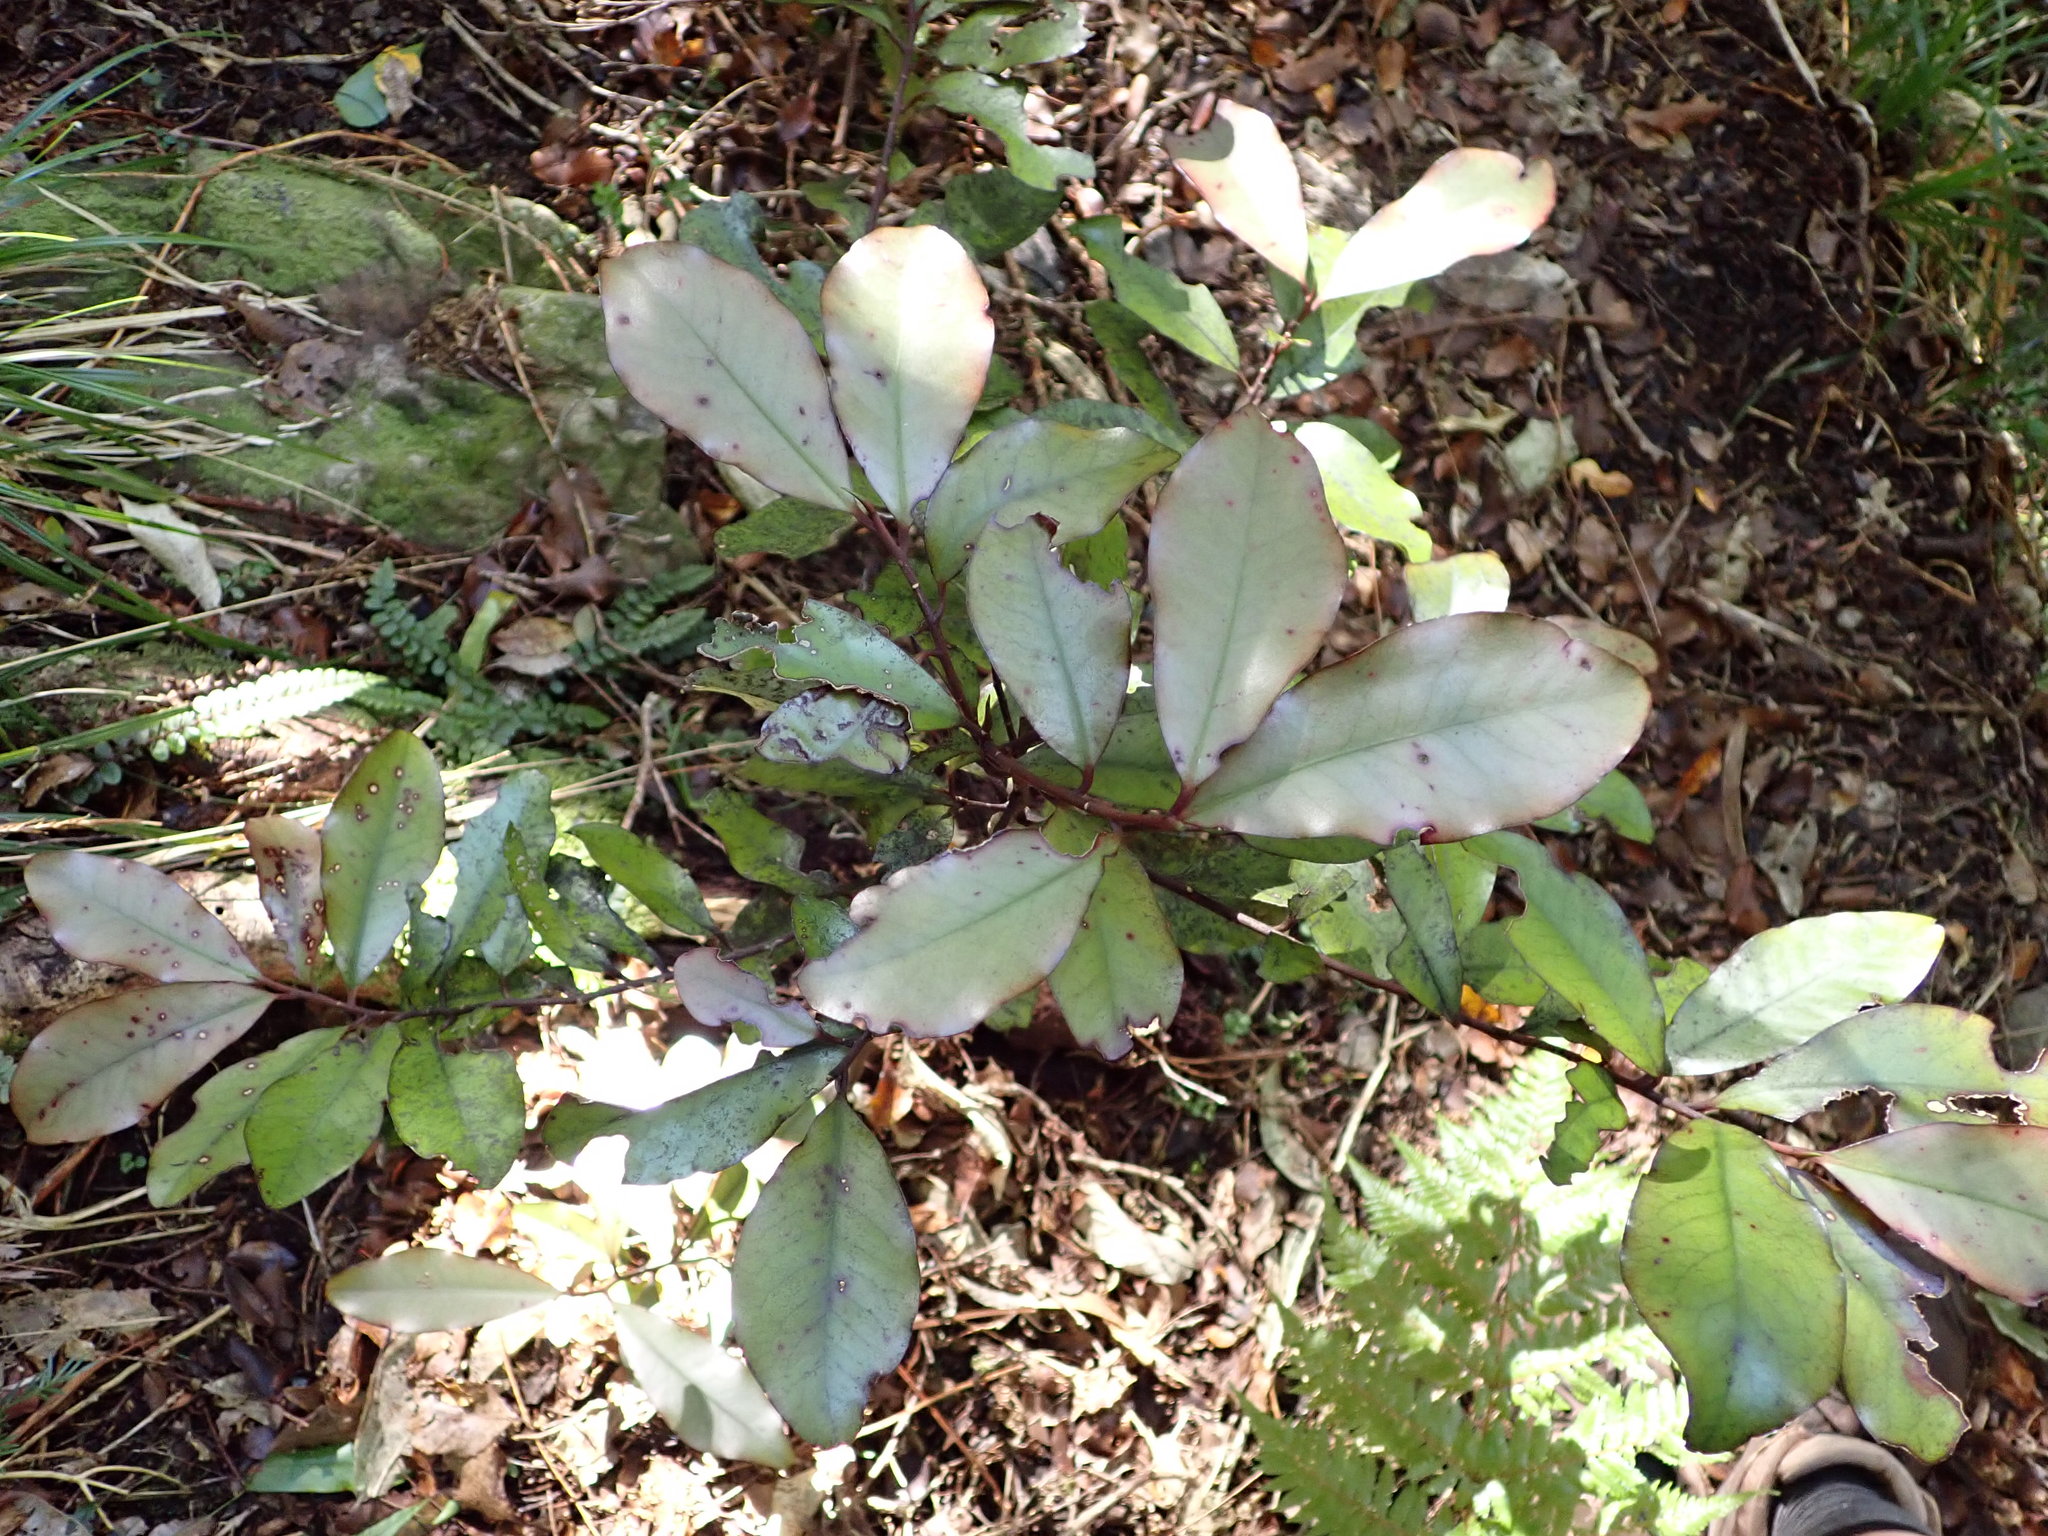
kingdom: Plantae
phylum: Tracheophyta
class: Magnoliopsida
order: Canellales
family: Winteraceae
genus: Pseudowintera
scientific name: Pseudowintera colorata
